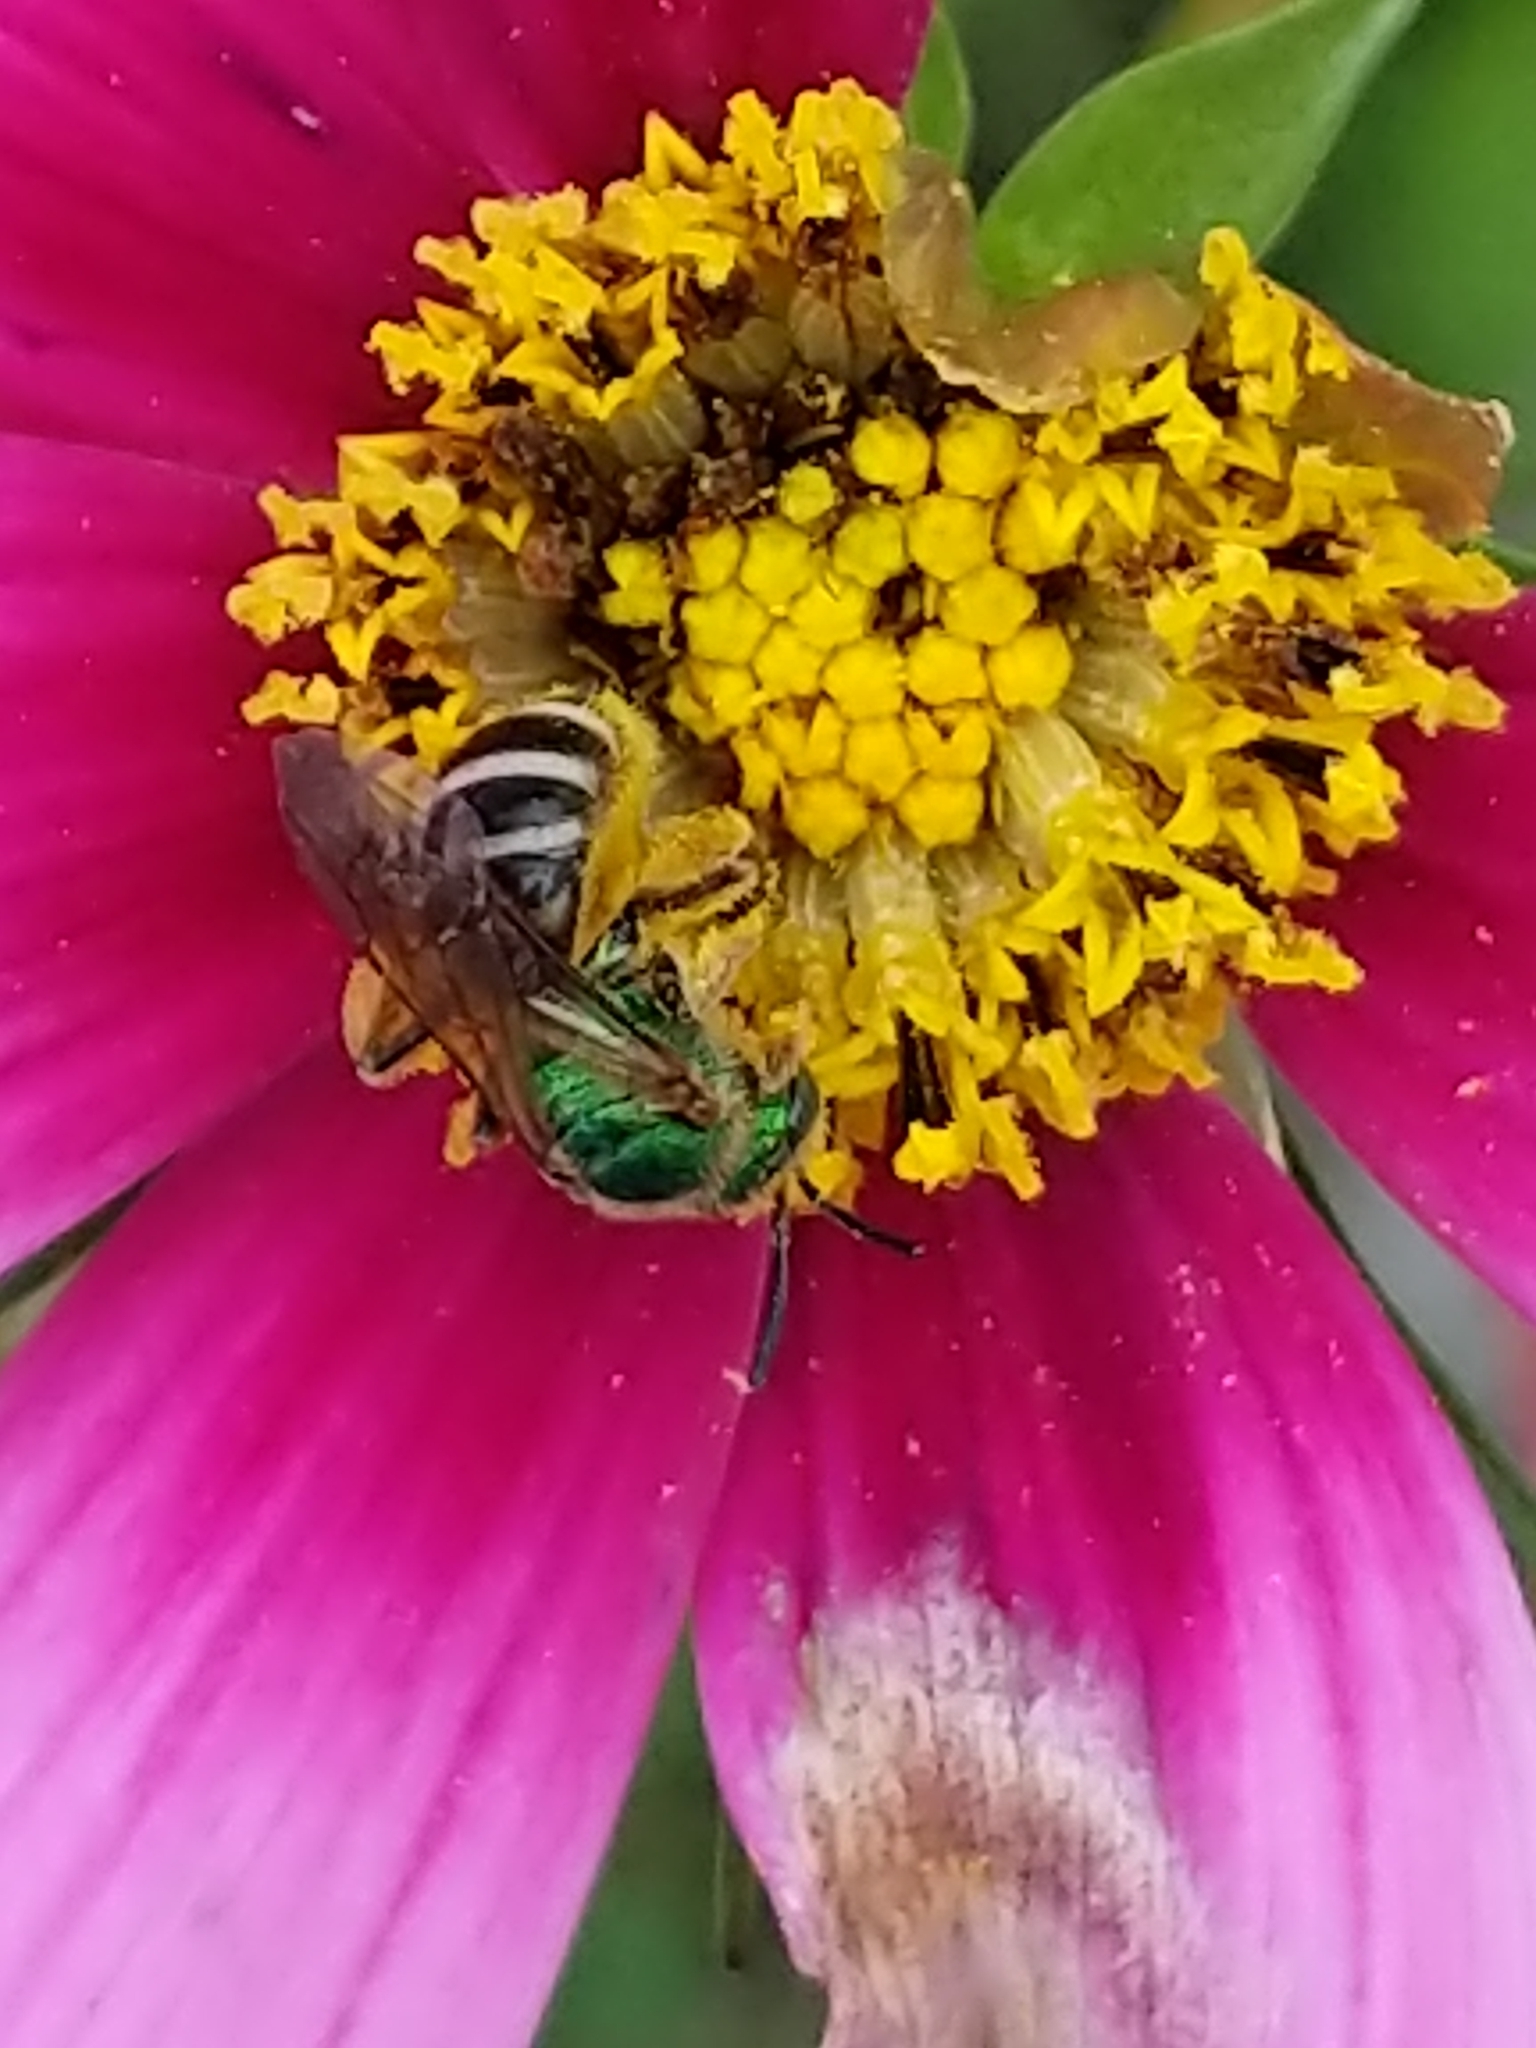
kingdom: Animalia
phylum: Arthropoda
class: Insecta
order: Hymenoptera
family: Halictidae
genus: Agapostemon
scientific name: Agapostemon virescens
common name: Bicolored striped sweat bee
